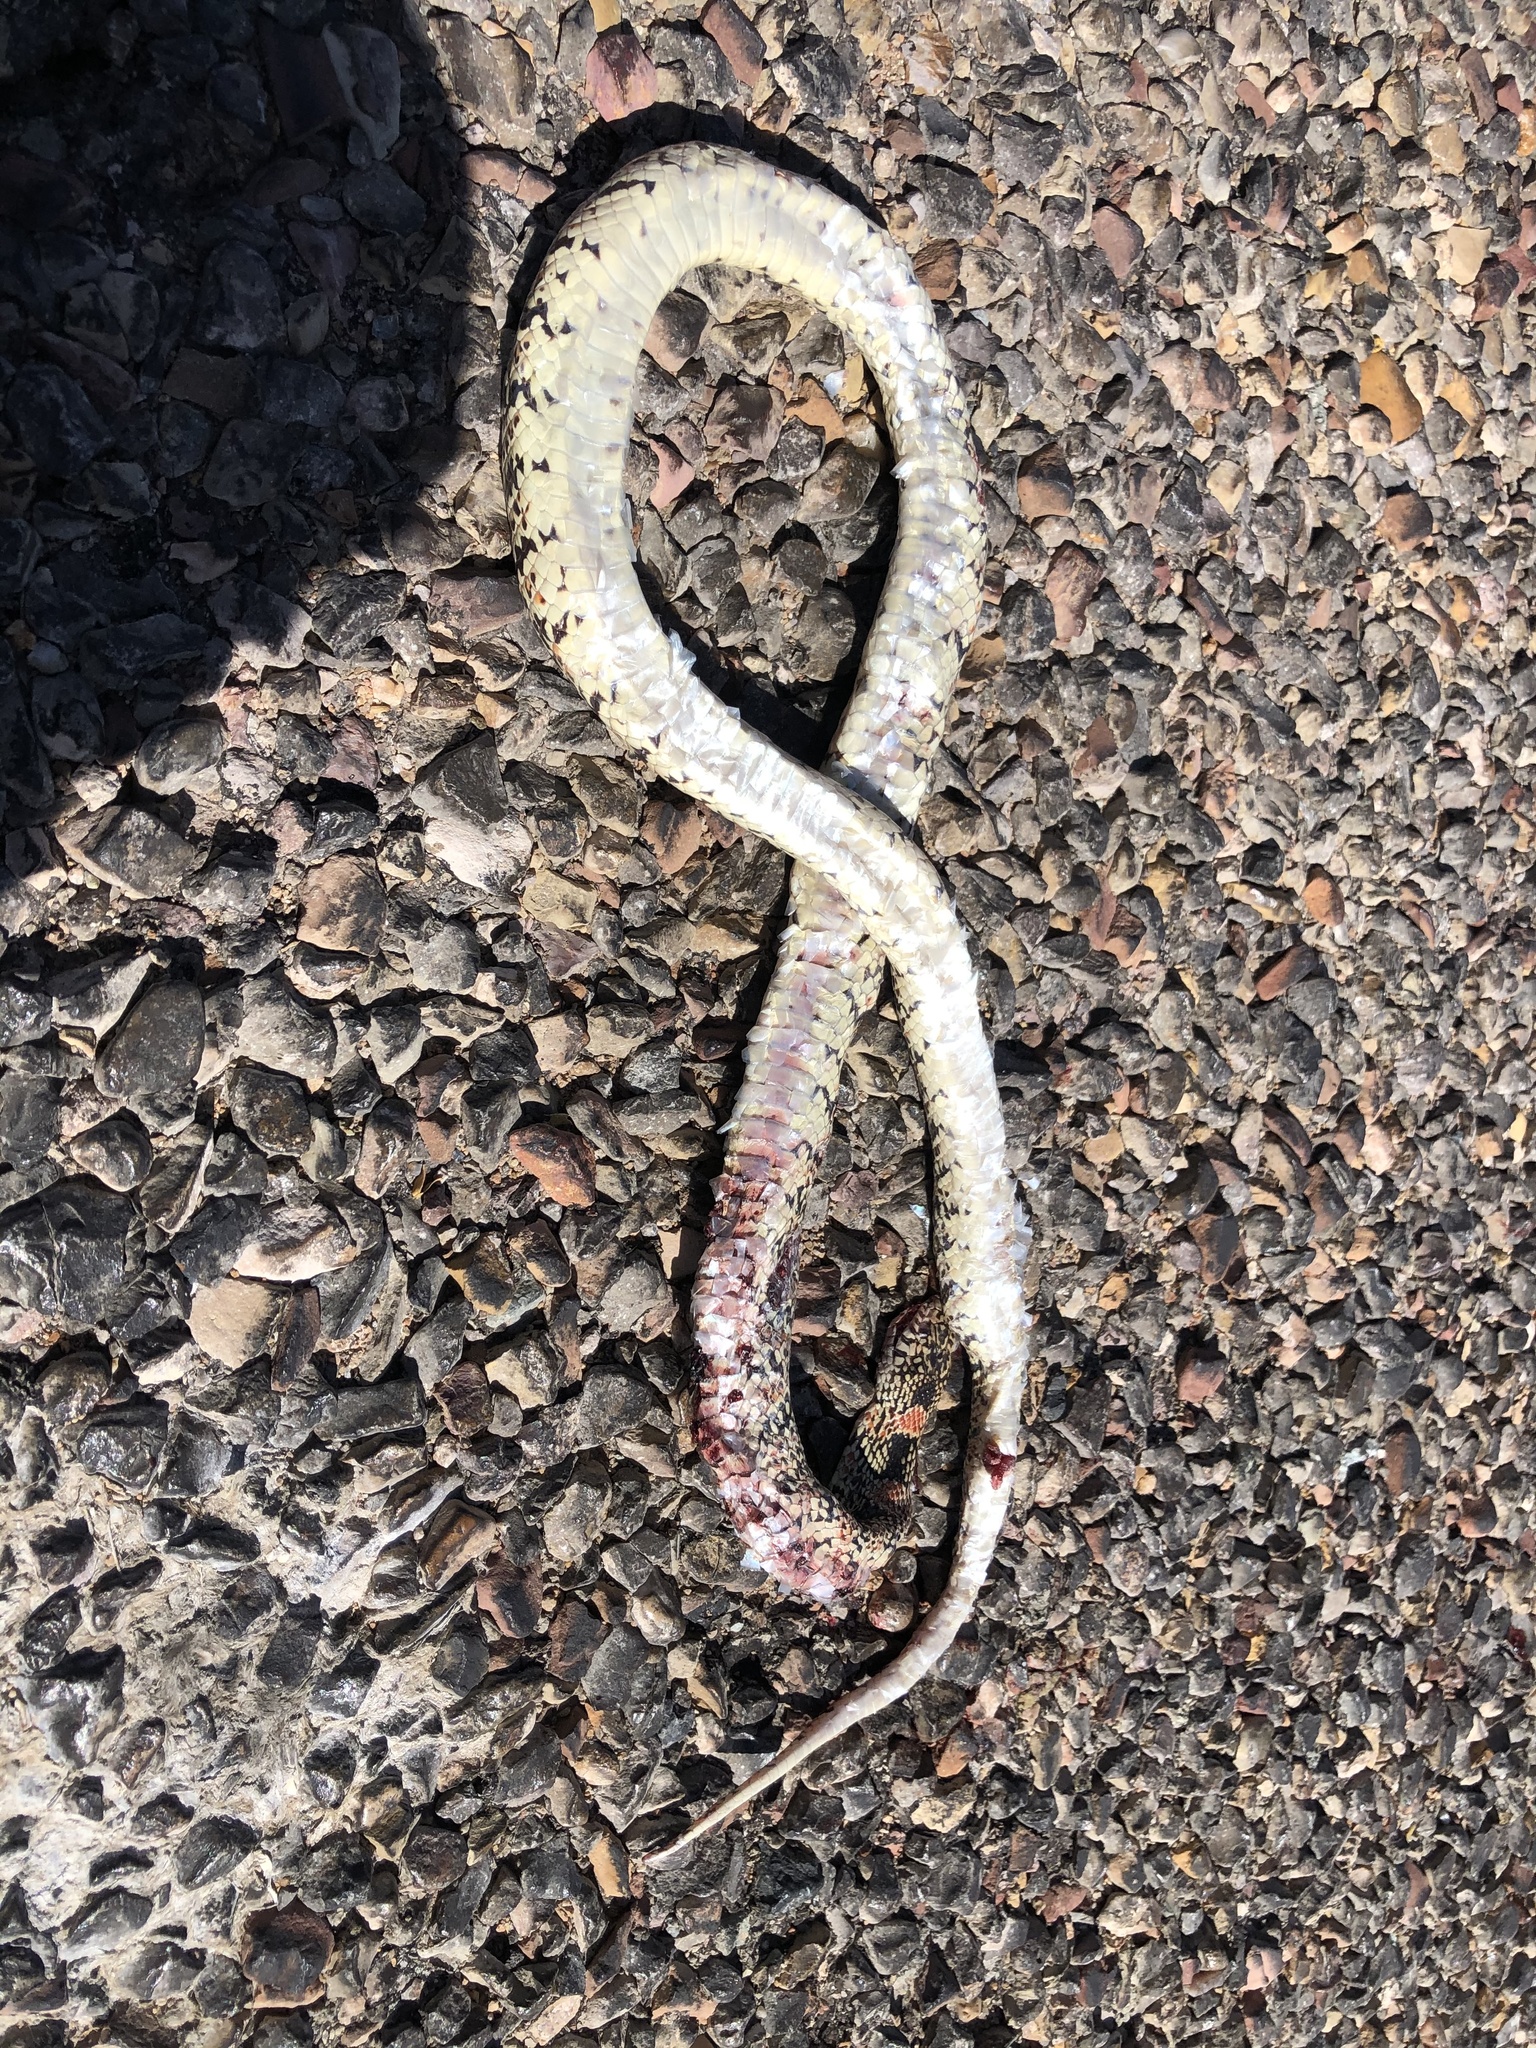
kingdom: Animalia
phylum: Chordata
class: Squamata
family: Colubridae
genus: Rhinocheilus
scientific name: Rhinocheilus lecontei
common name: Longnose snake
